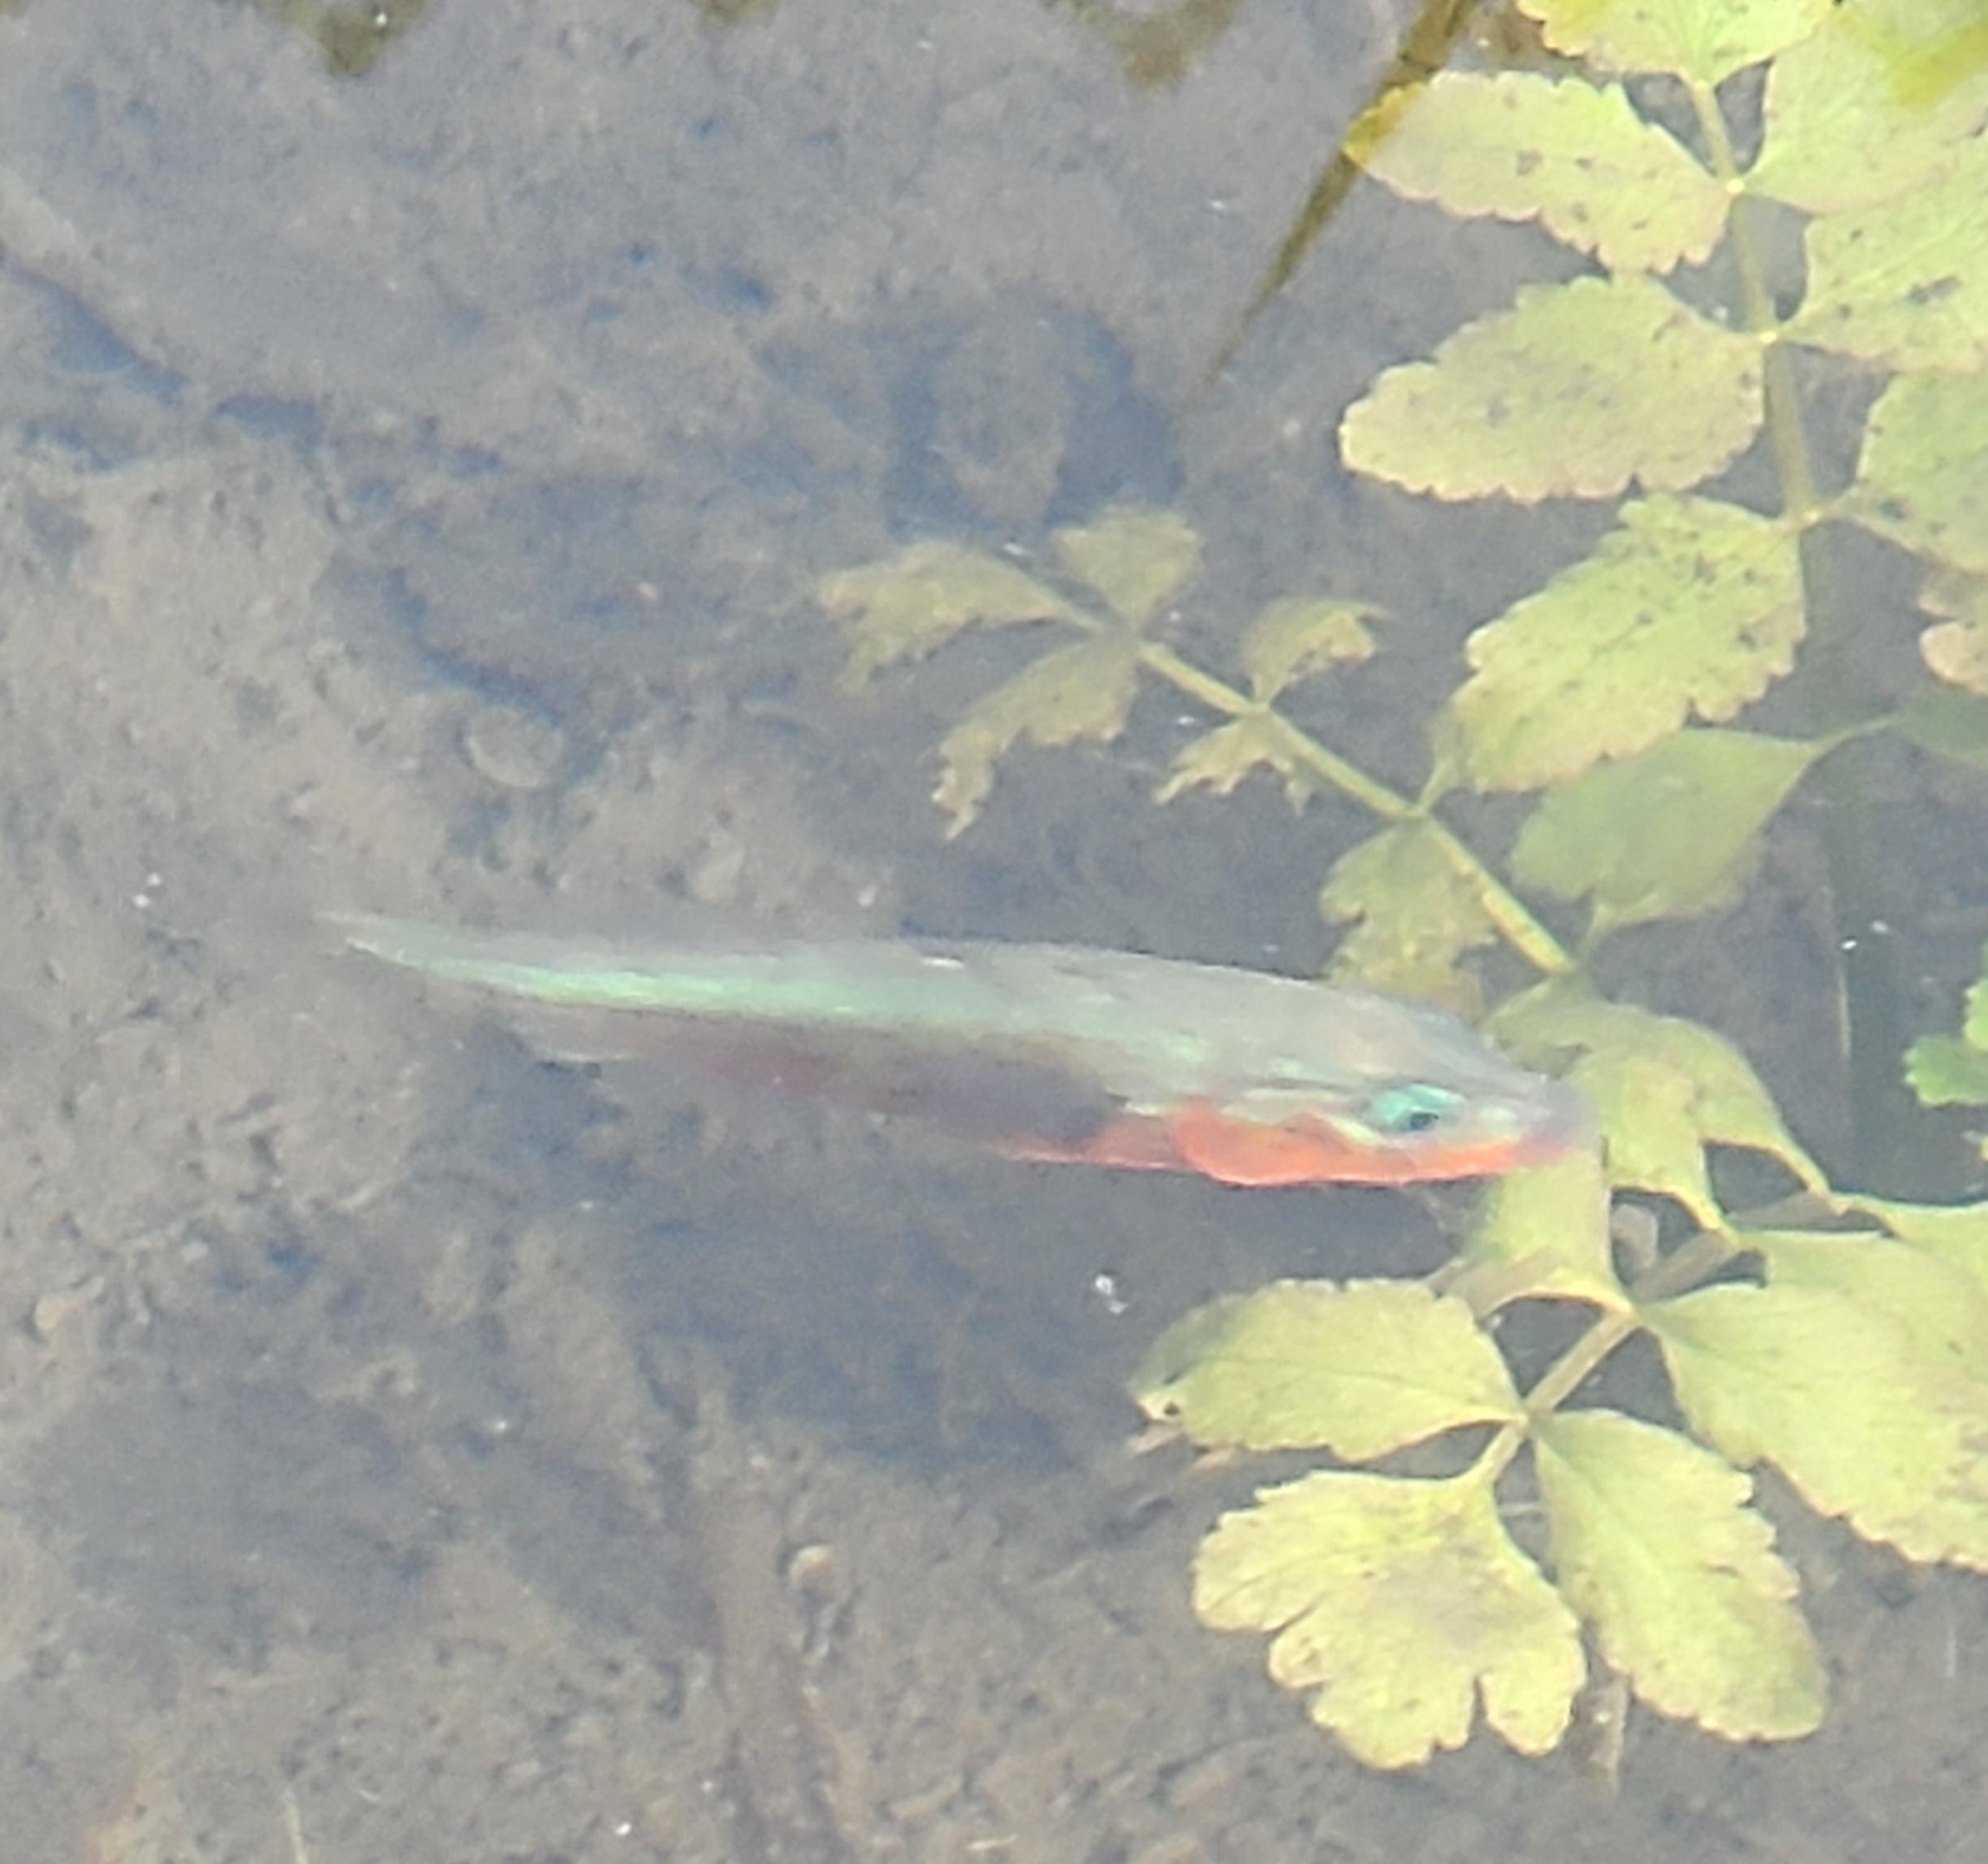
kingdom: Animalia
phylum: Chordata
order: Gasterosteiformes
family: Gasterosteidae
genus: Gasterosteus
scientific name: Gasterosteus aculeatus
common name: Three-spined stickleback
